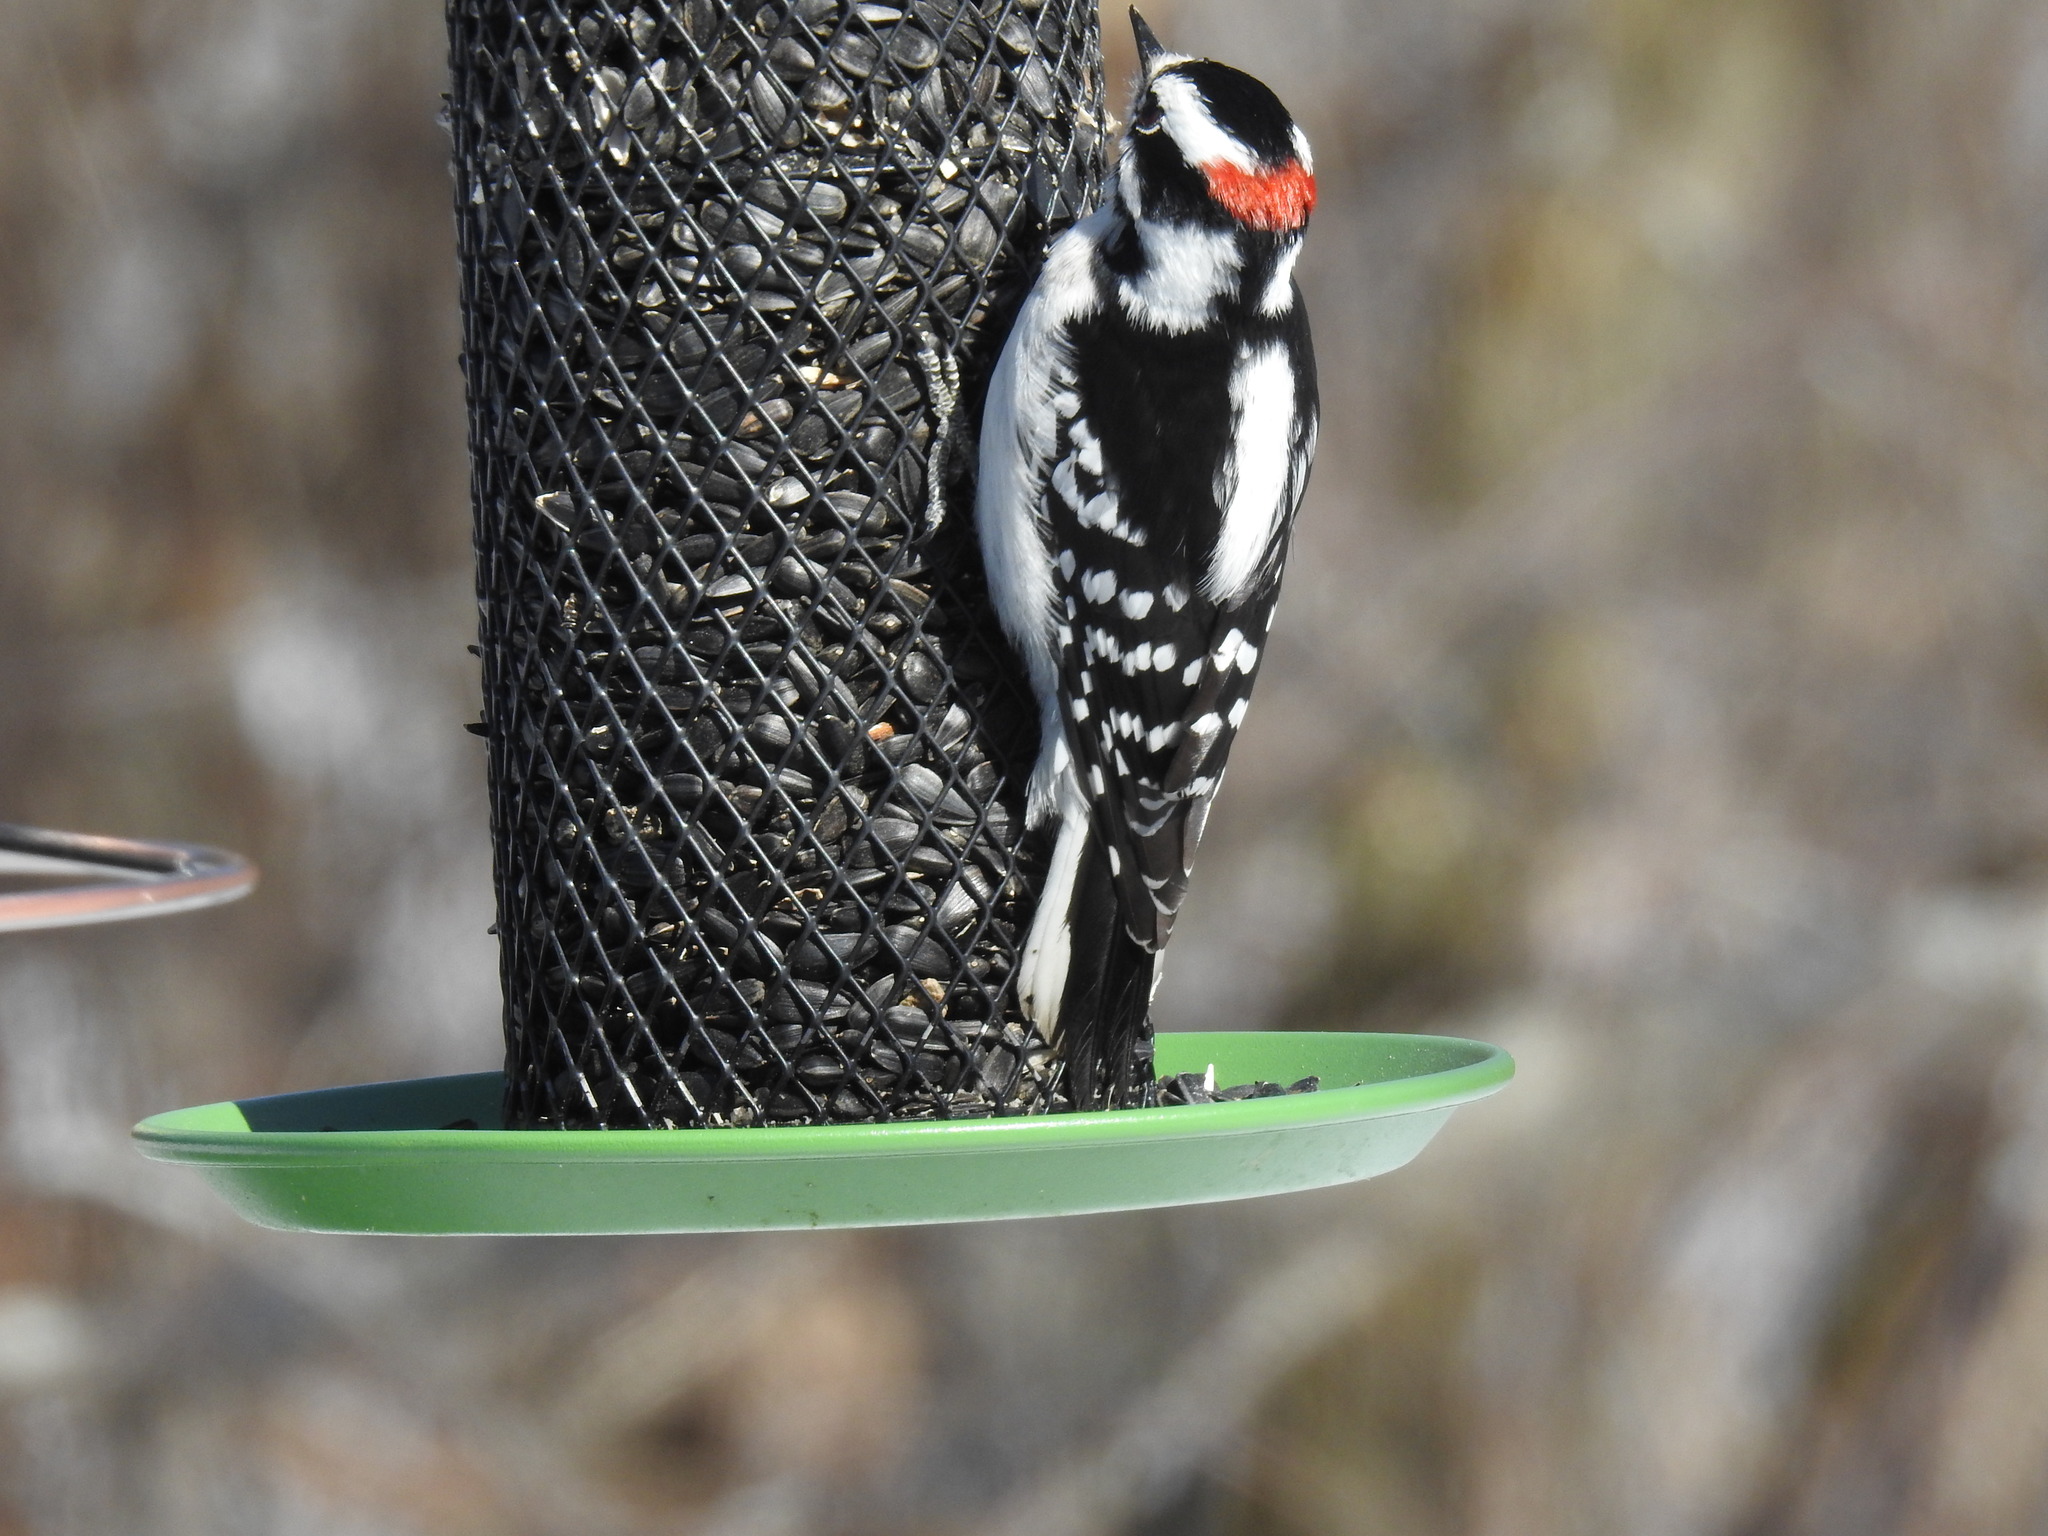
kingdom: Animalia
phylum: Chordata
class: Aves
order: Piciformes
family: Picidae
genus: Dryobates
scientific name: Dryobates pubescens
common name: Downy woodpecker
